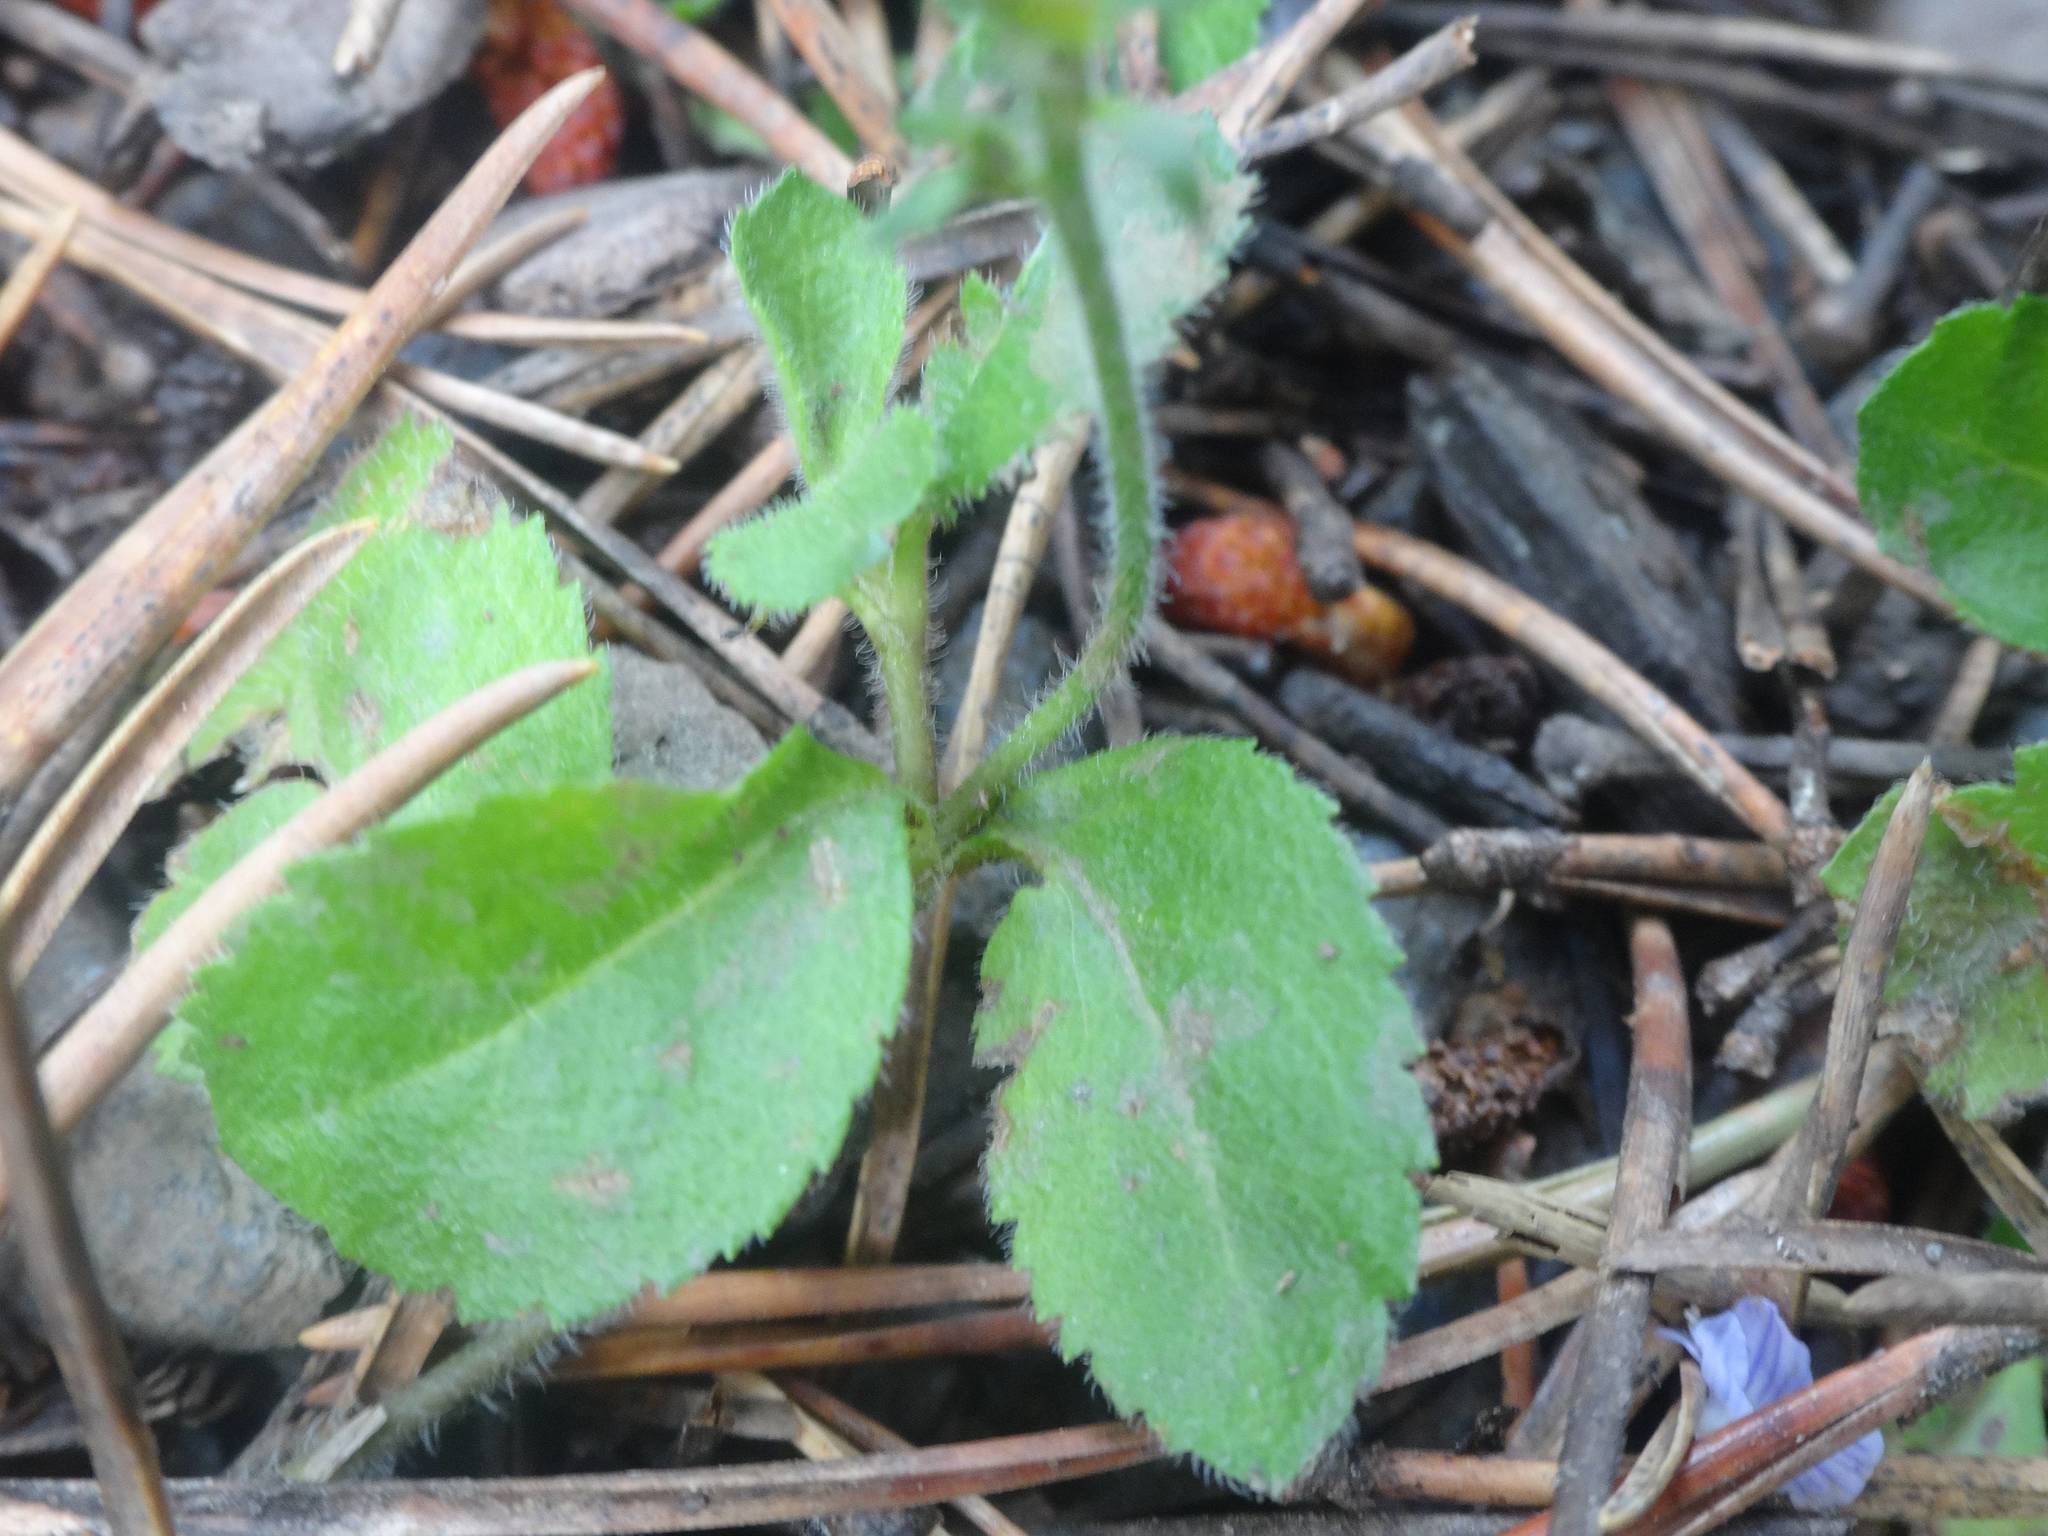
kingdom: Plantae
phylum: Tracheophyta
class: Magnoliopsida
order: Lamiales
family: Plantaginaceae
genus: Veronica
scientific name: Veronica officinalis
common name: Common speedwell
